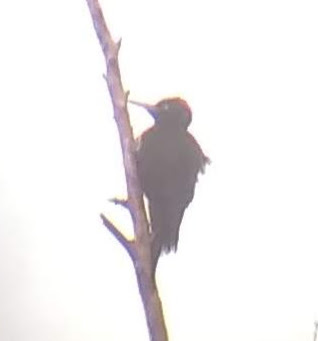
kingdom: Animalia
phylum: Chordata
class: Aves
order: Piciformes
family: Picidae
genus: Dryocopus
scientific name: Dryocopus martius
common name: Black woodpecker
